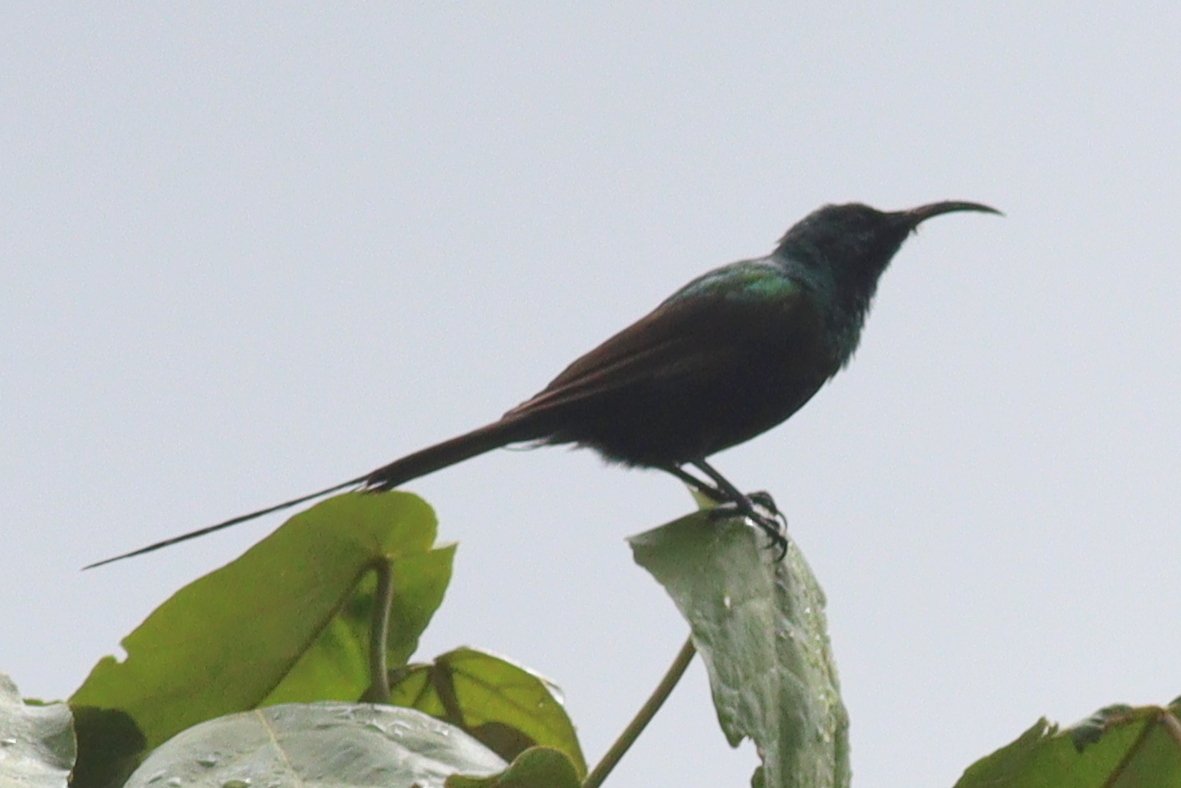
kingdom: Animalia
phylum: Chordata
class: Aves
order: Passeriformes
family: Nectariniidae
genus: Nectarinia
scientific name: Nectarinia kilimensis
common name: Bronzy sunbird
